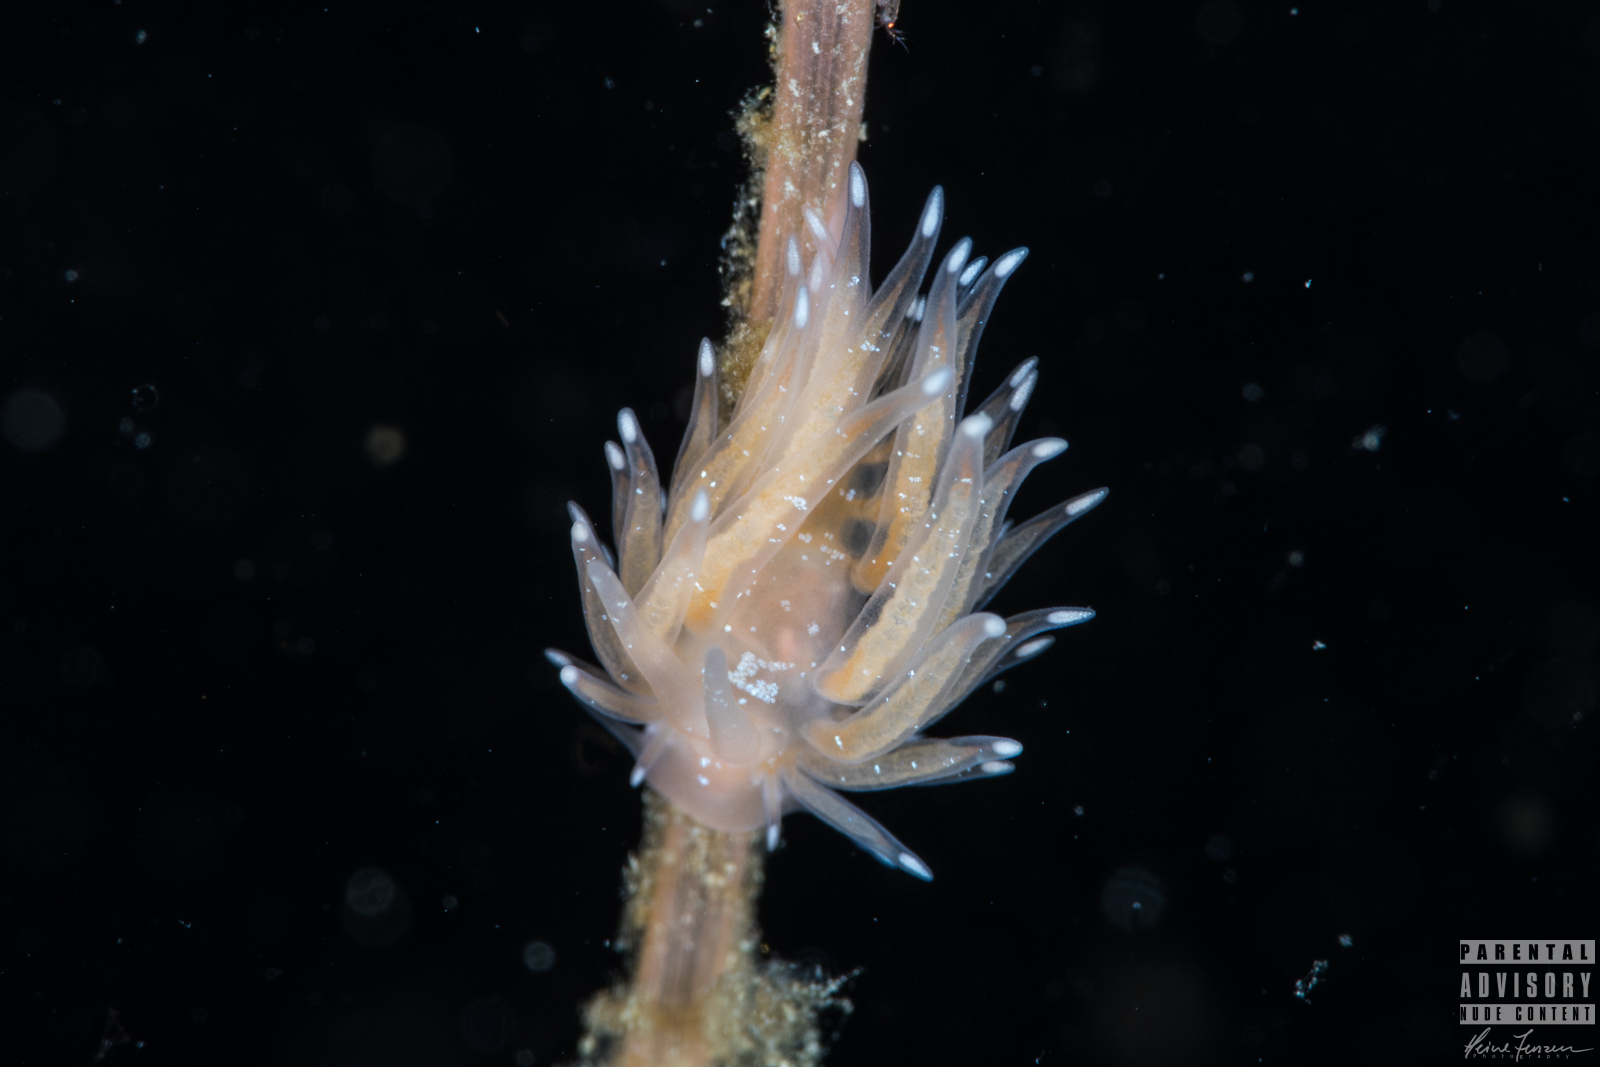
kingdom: Animalia
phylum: Mollusca
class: Gastropoda
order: Nudibranchia
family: Cumanotidae
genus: Cumanotus
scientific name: Cumanotus beaumonti
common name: Polyp aeolis
